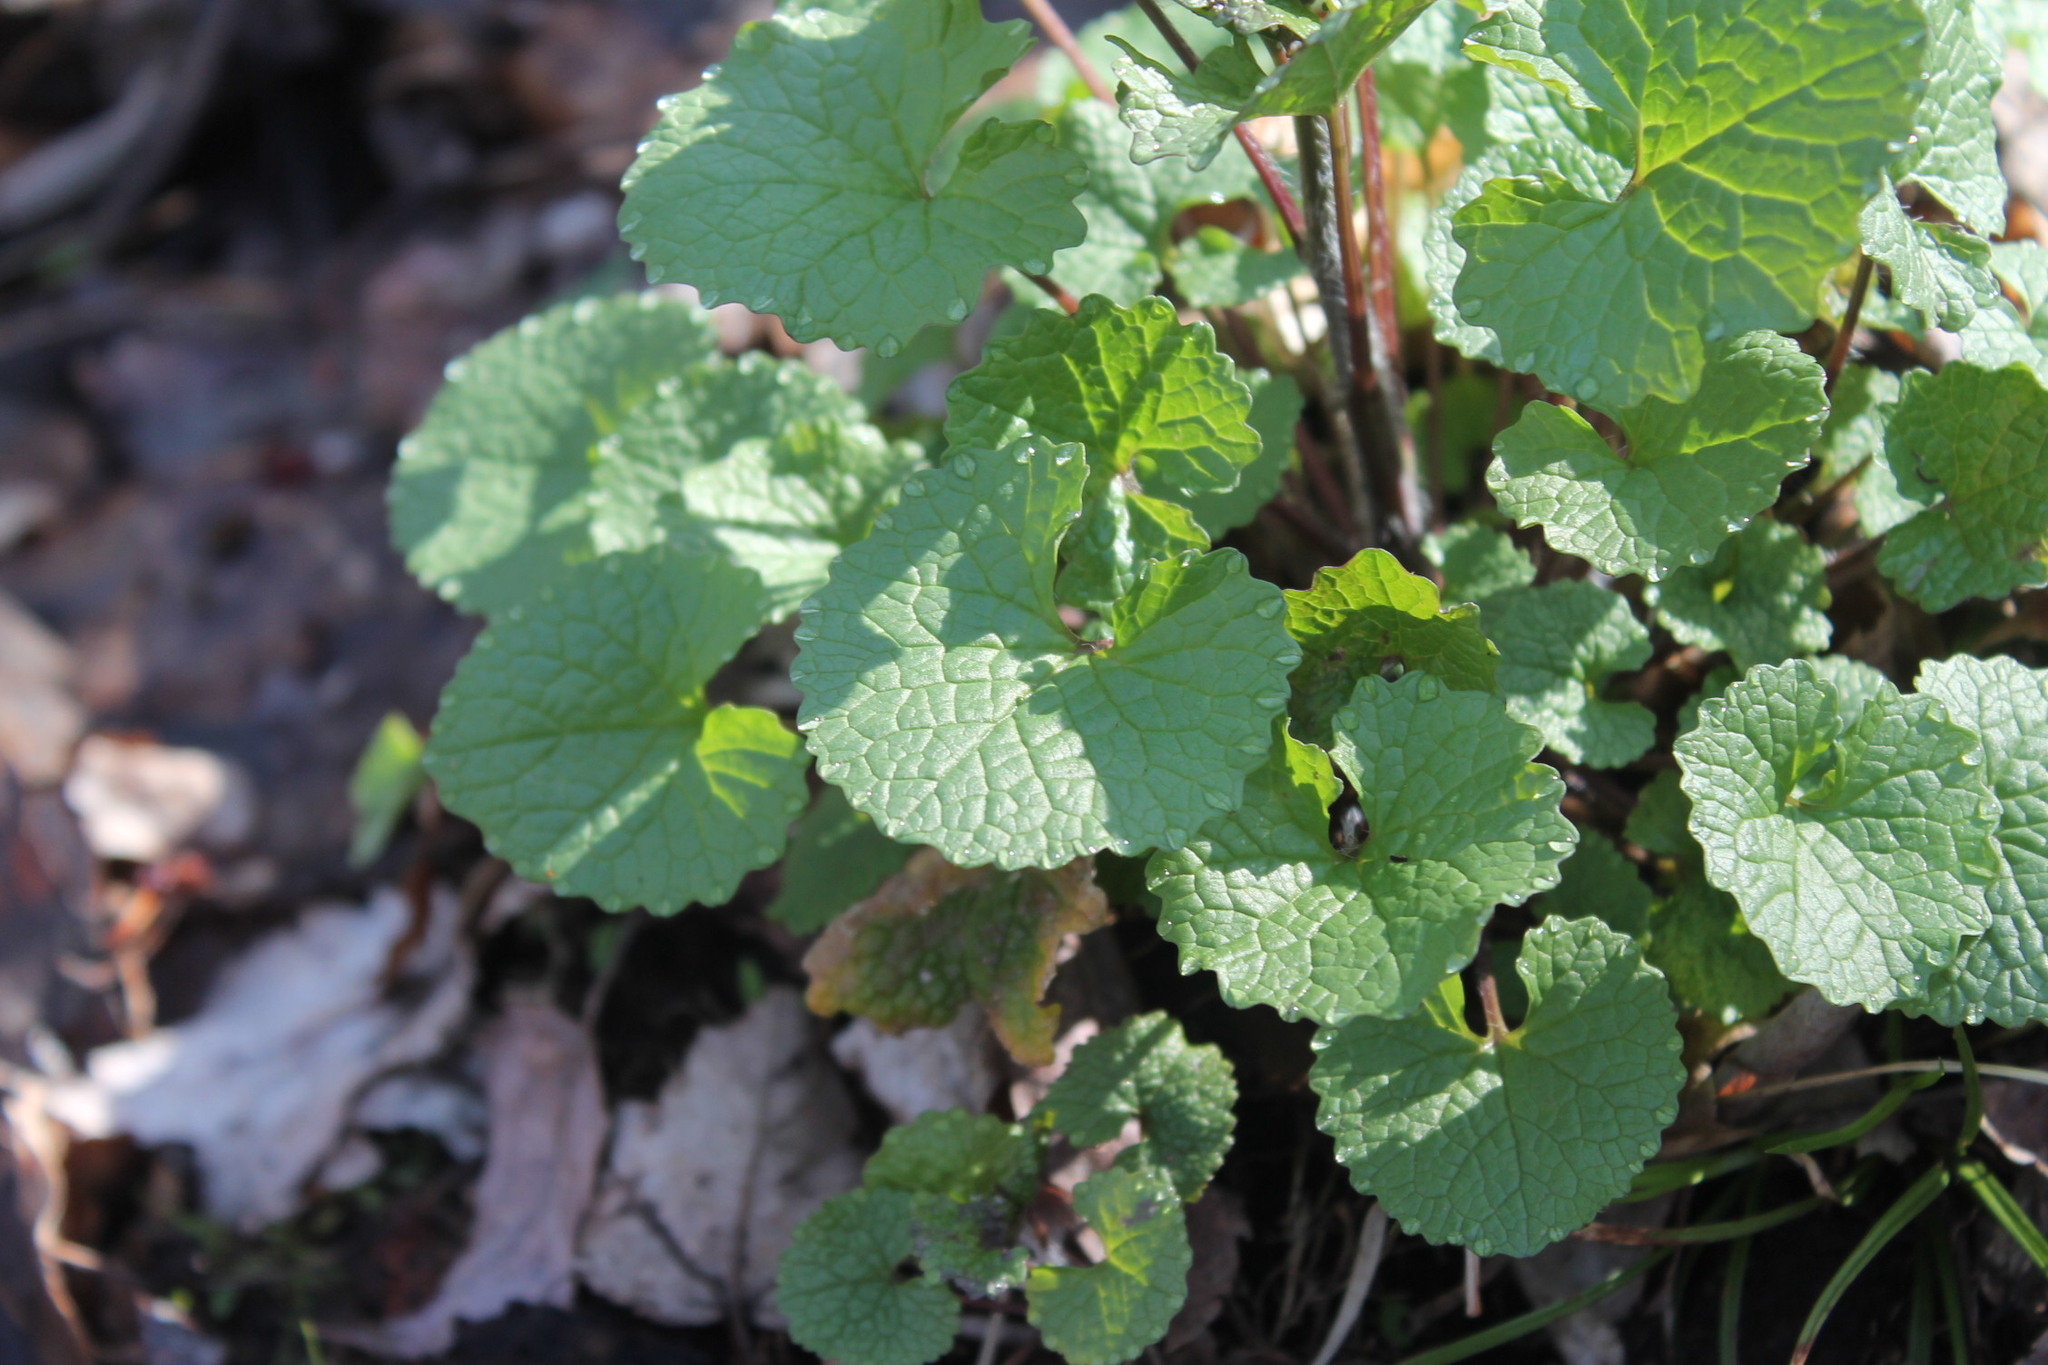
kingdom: Plantae
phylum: Tracheophyta
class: Magnoliopsida
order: Brassicales
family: Brassicaceae
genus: Alliaria
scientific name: Alliaria petiolata
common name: Garlic mustard
